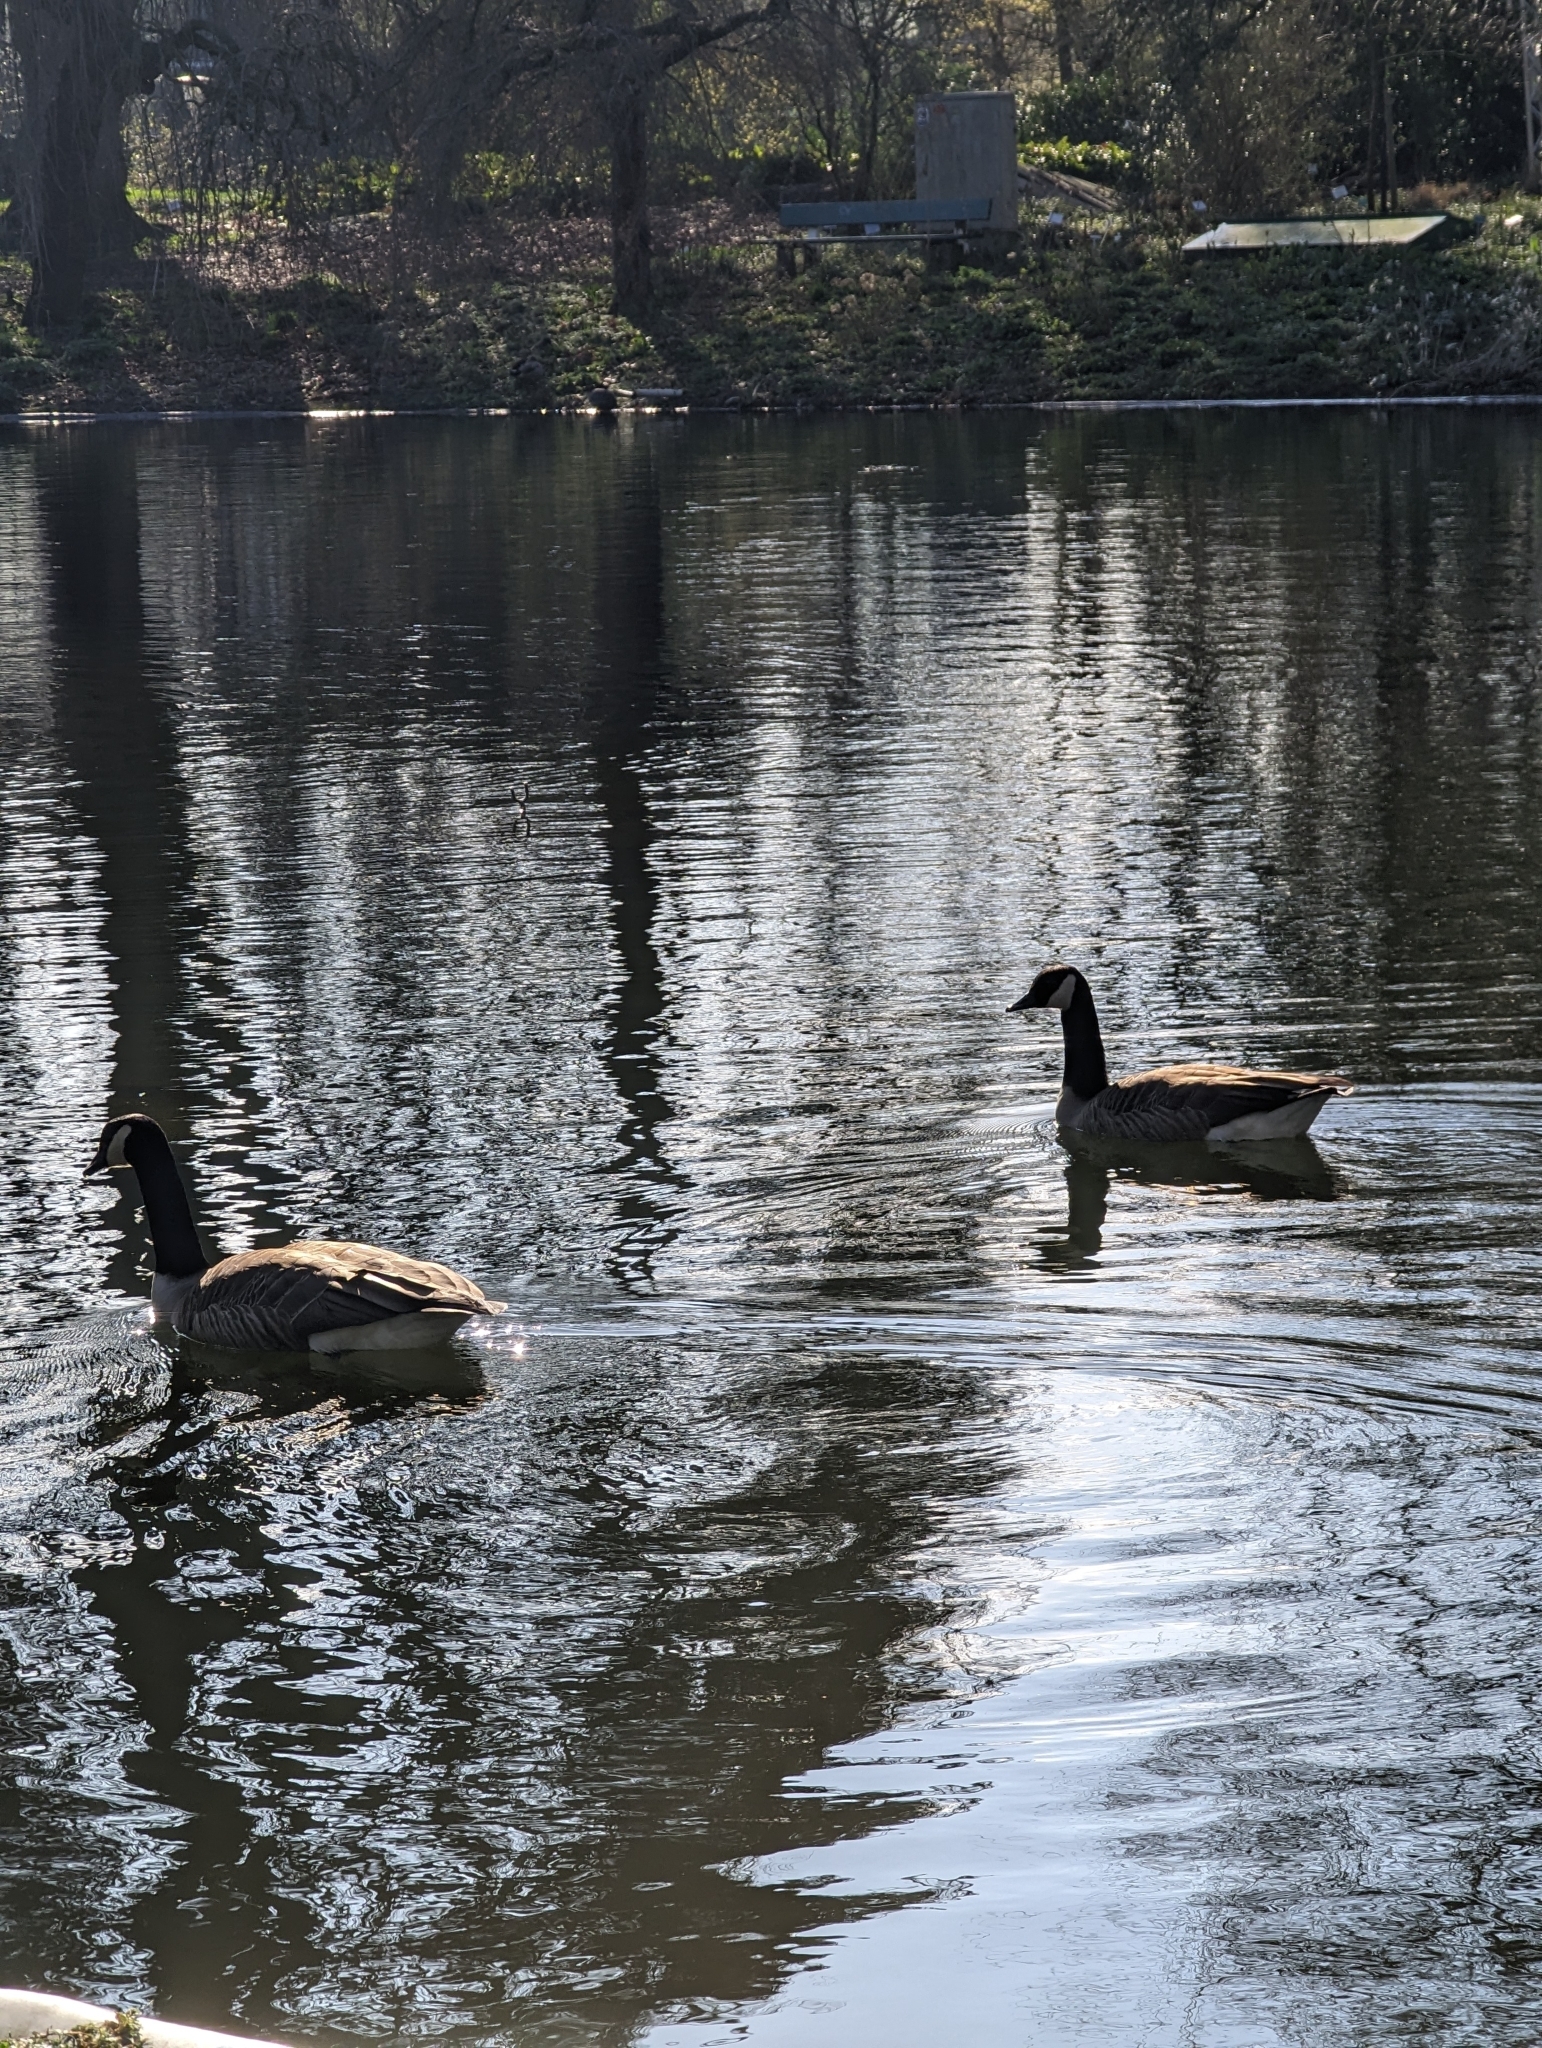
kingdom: Animalia
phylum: Chordata
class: Aves
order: Anseriformes
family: Anatidae
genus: Branta
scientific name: Branta canadensis
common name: Canada goose
